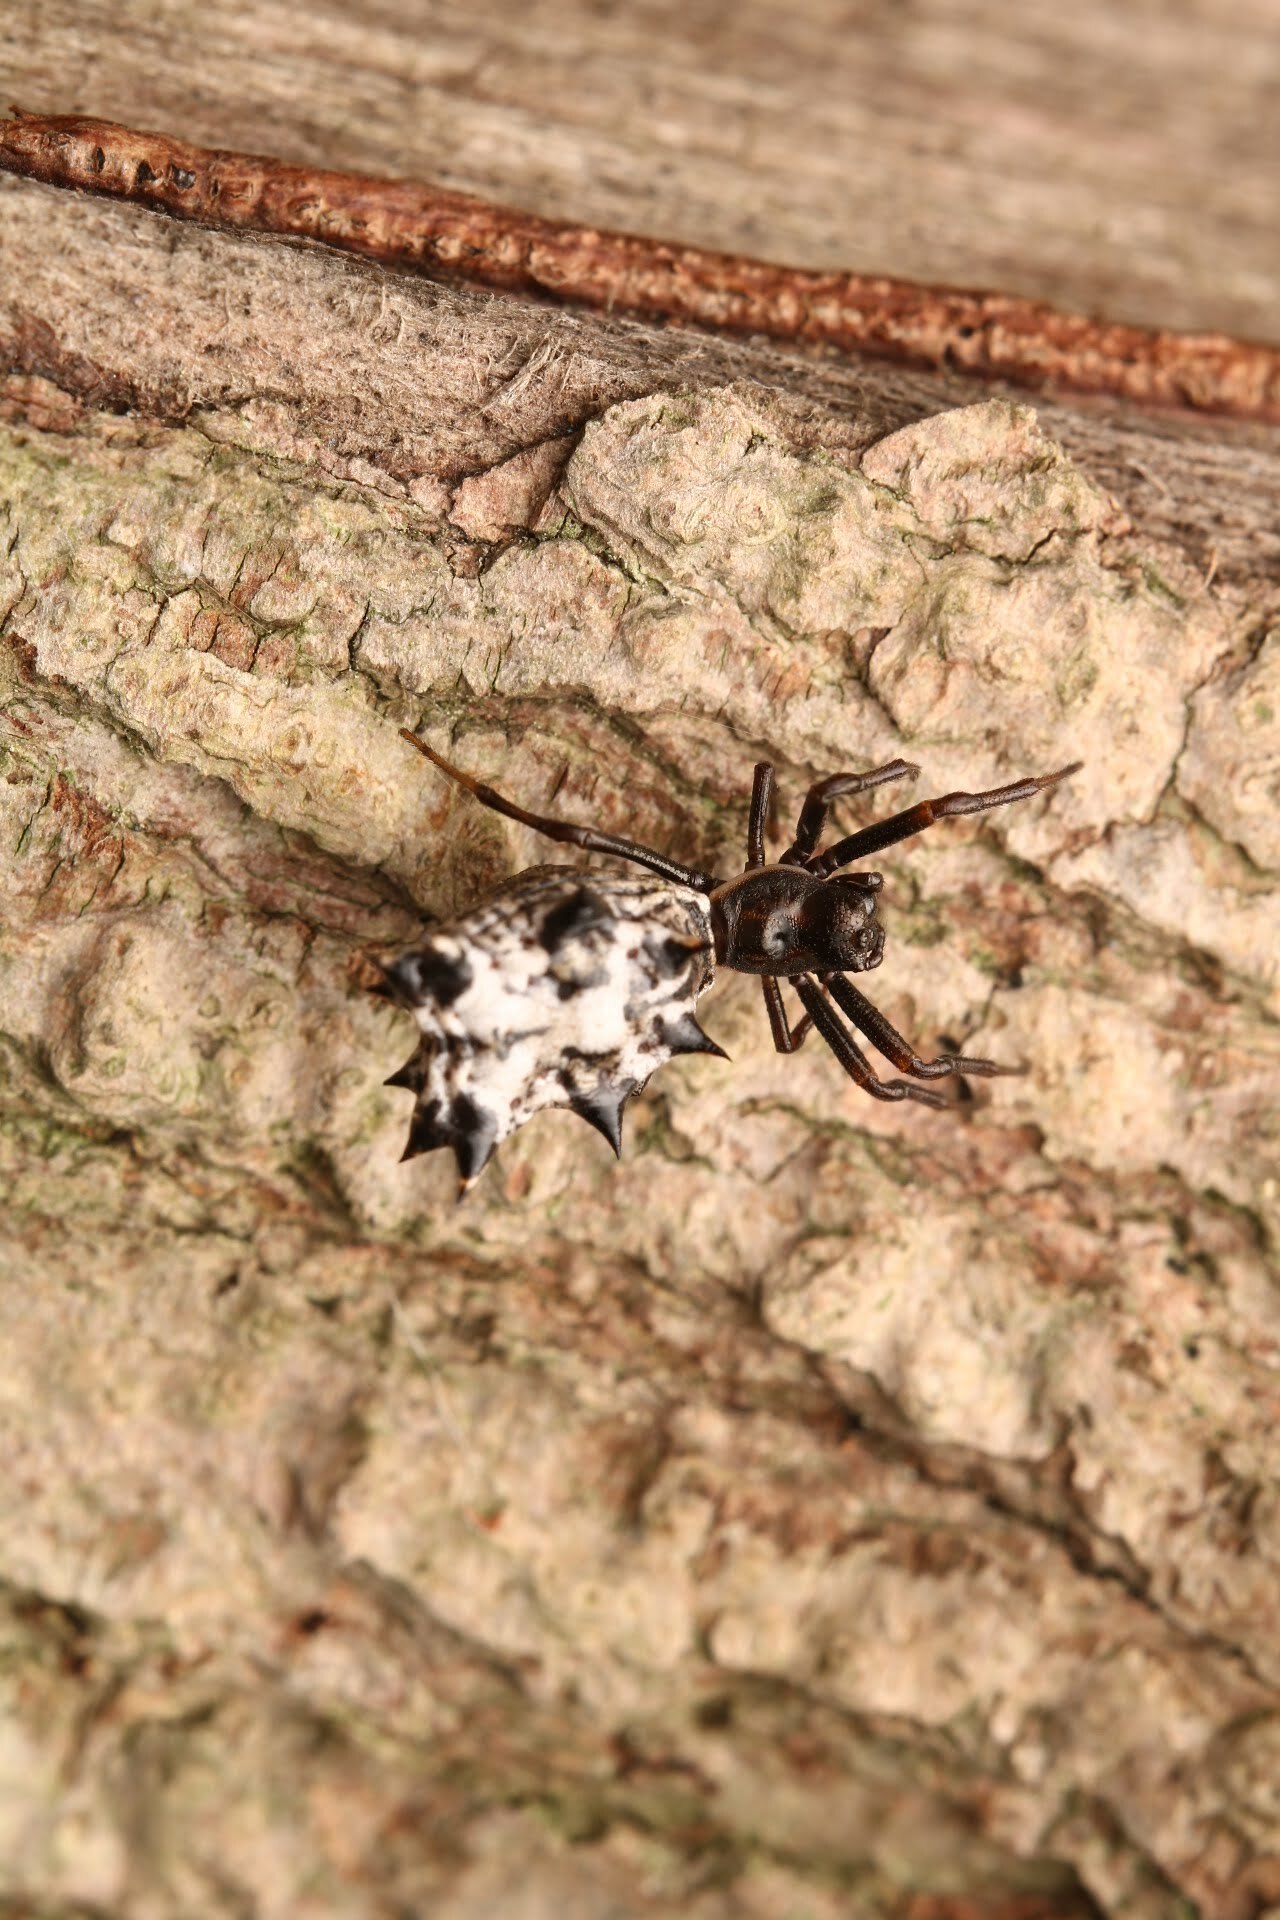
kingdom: Animalia
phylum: Arthropoda
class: Arachnida
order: Araneae
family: Araneidae
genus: Micrathena
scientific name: Micrathena gracilis
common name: Orb weavers
